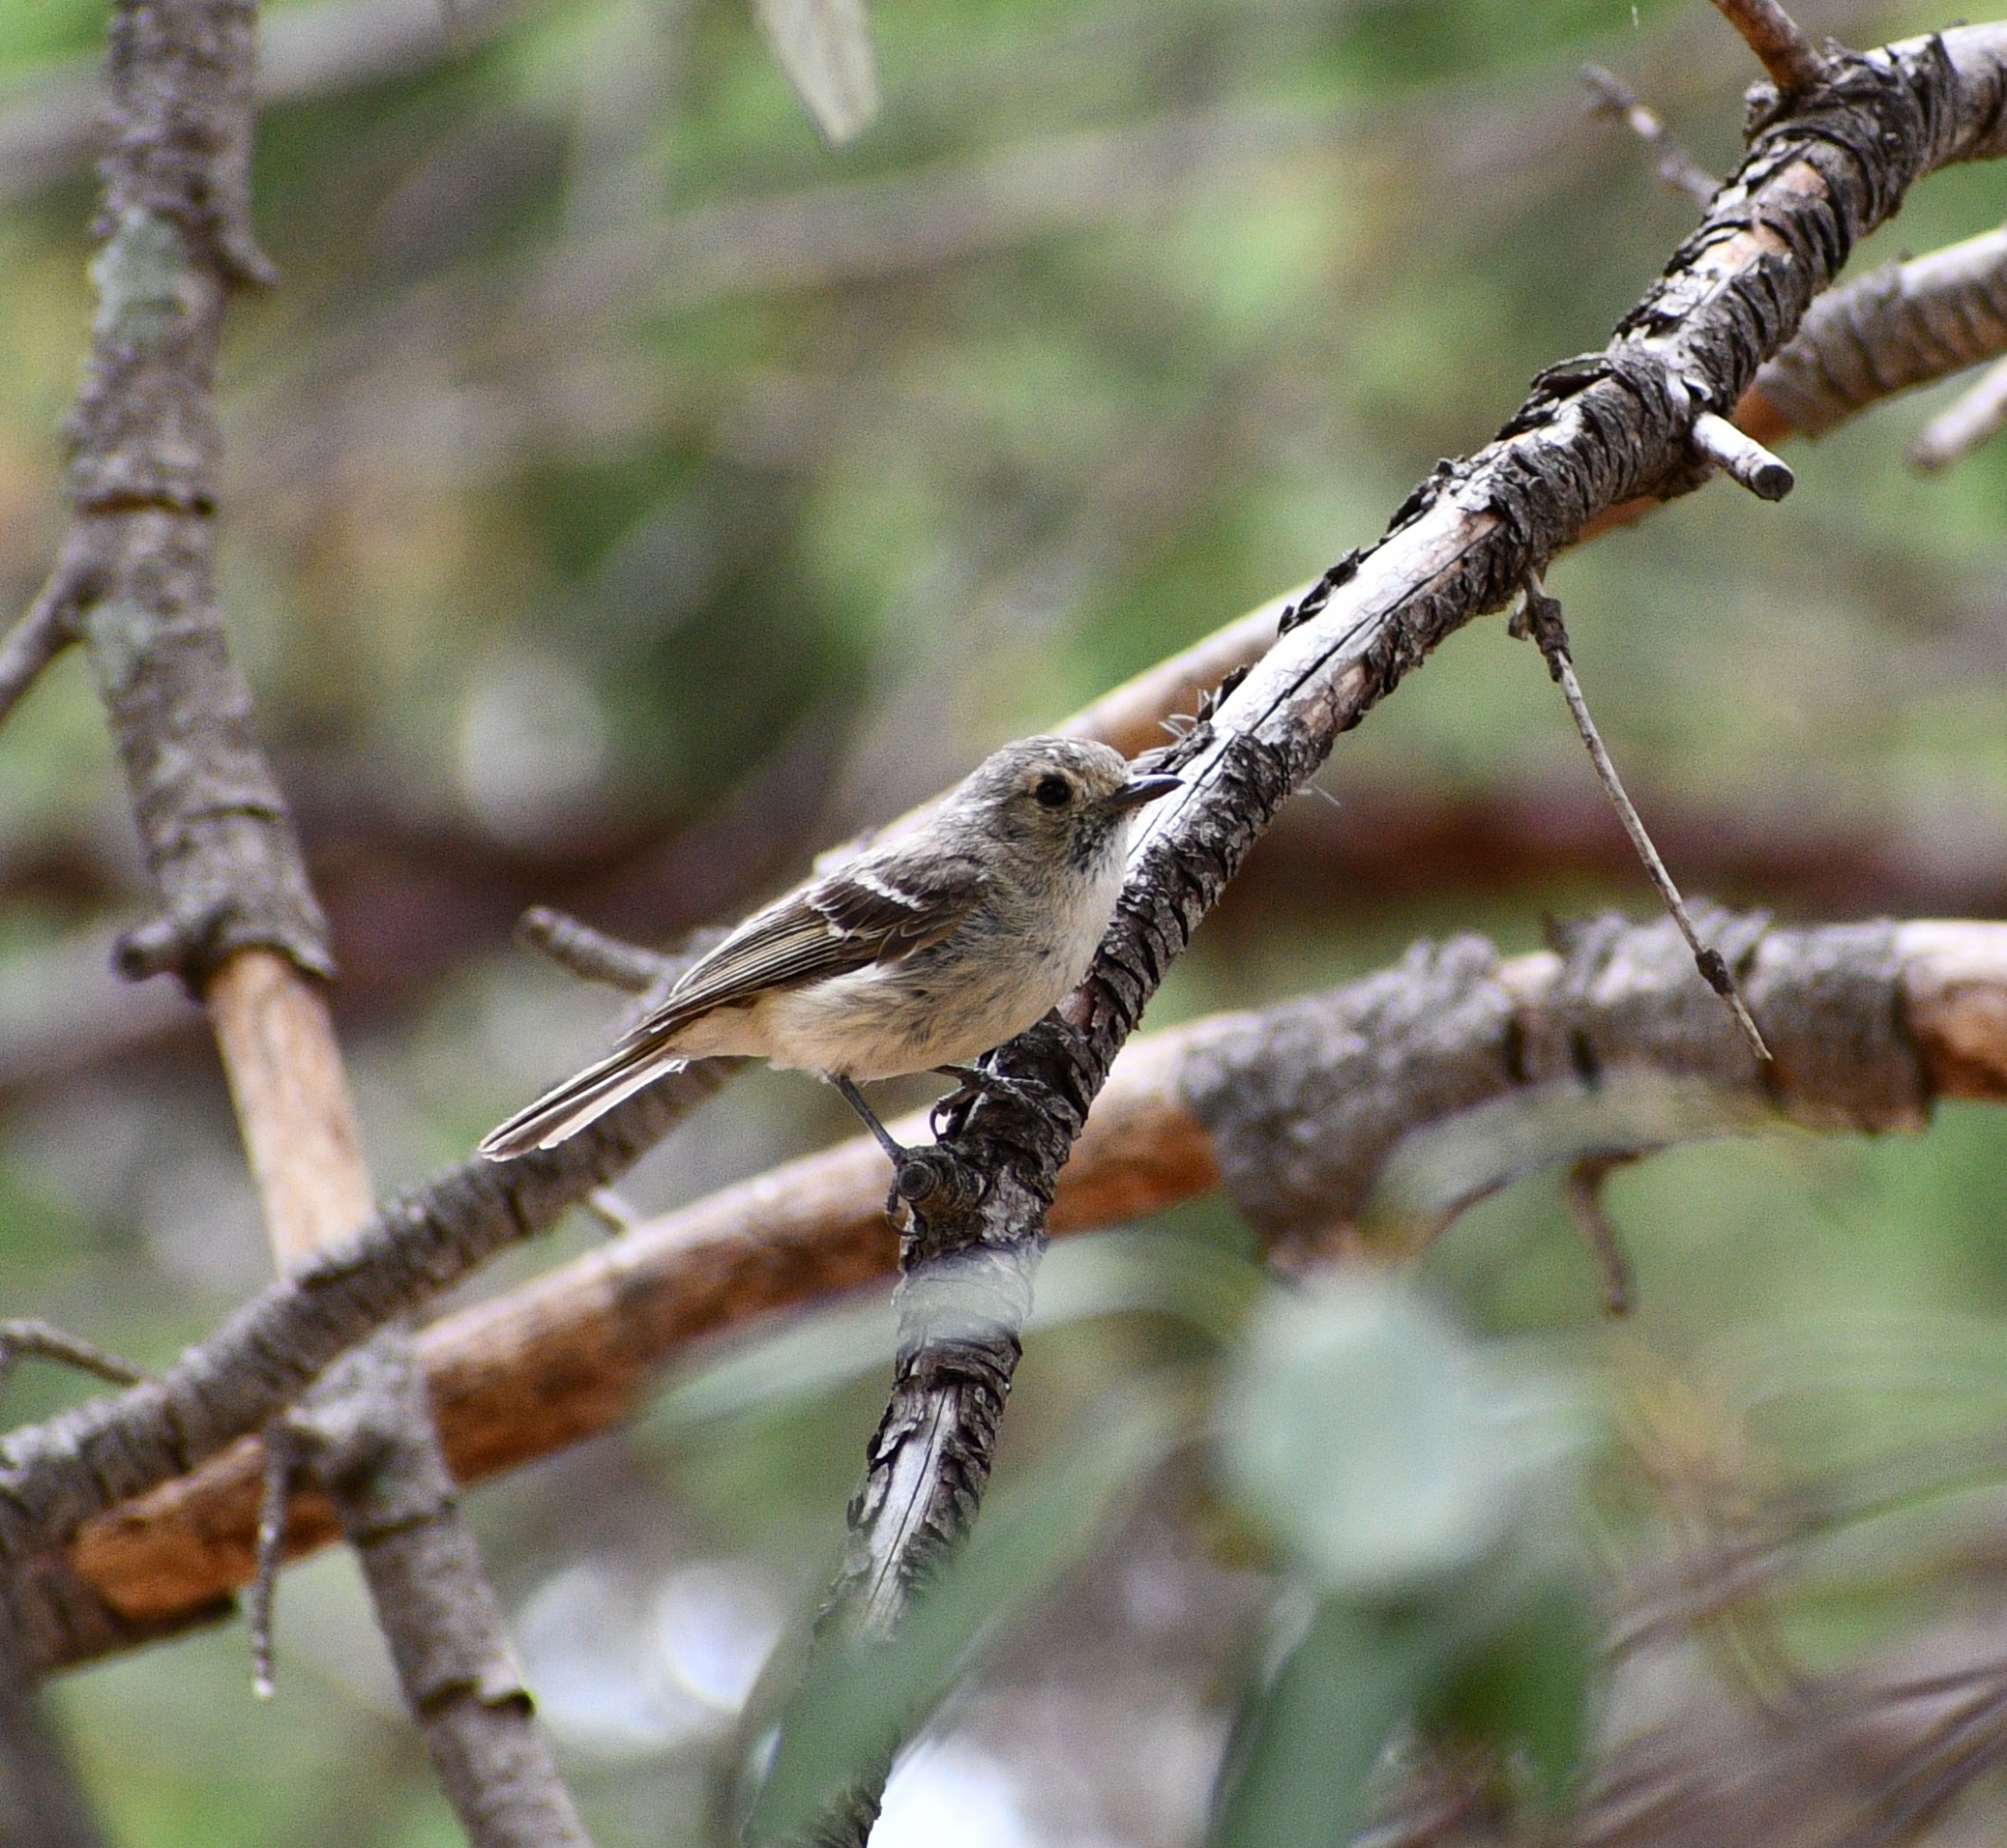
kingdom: Animalia
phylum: Chordata
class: Aves
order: Passeriformes
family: Vireonidae
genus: Vireo
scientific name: Vireo huttoni
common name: Hutton's vireo
